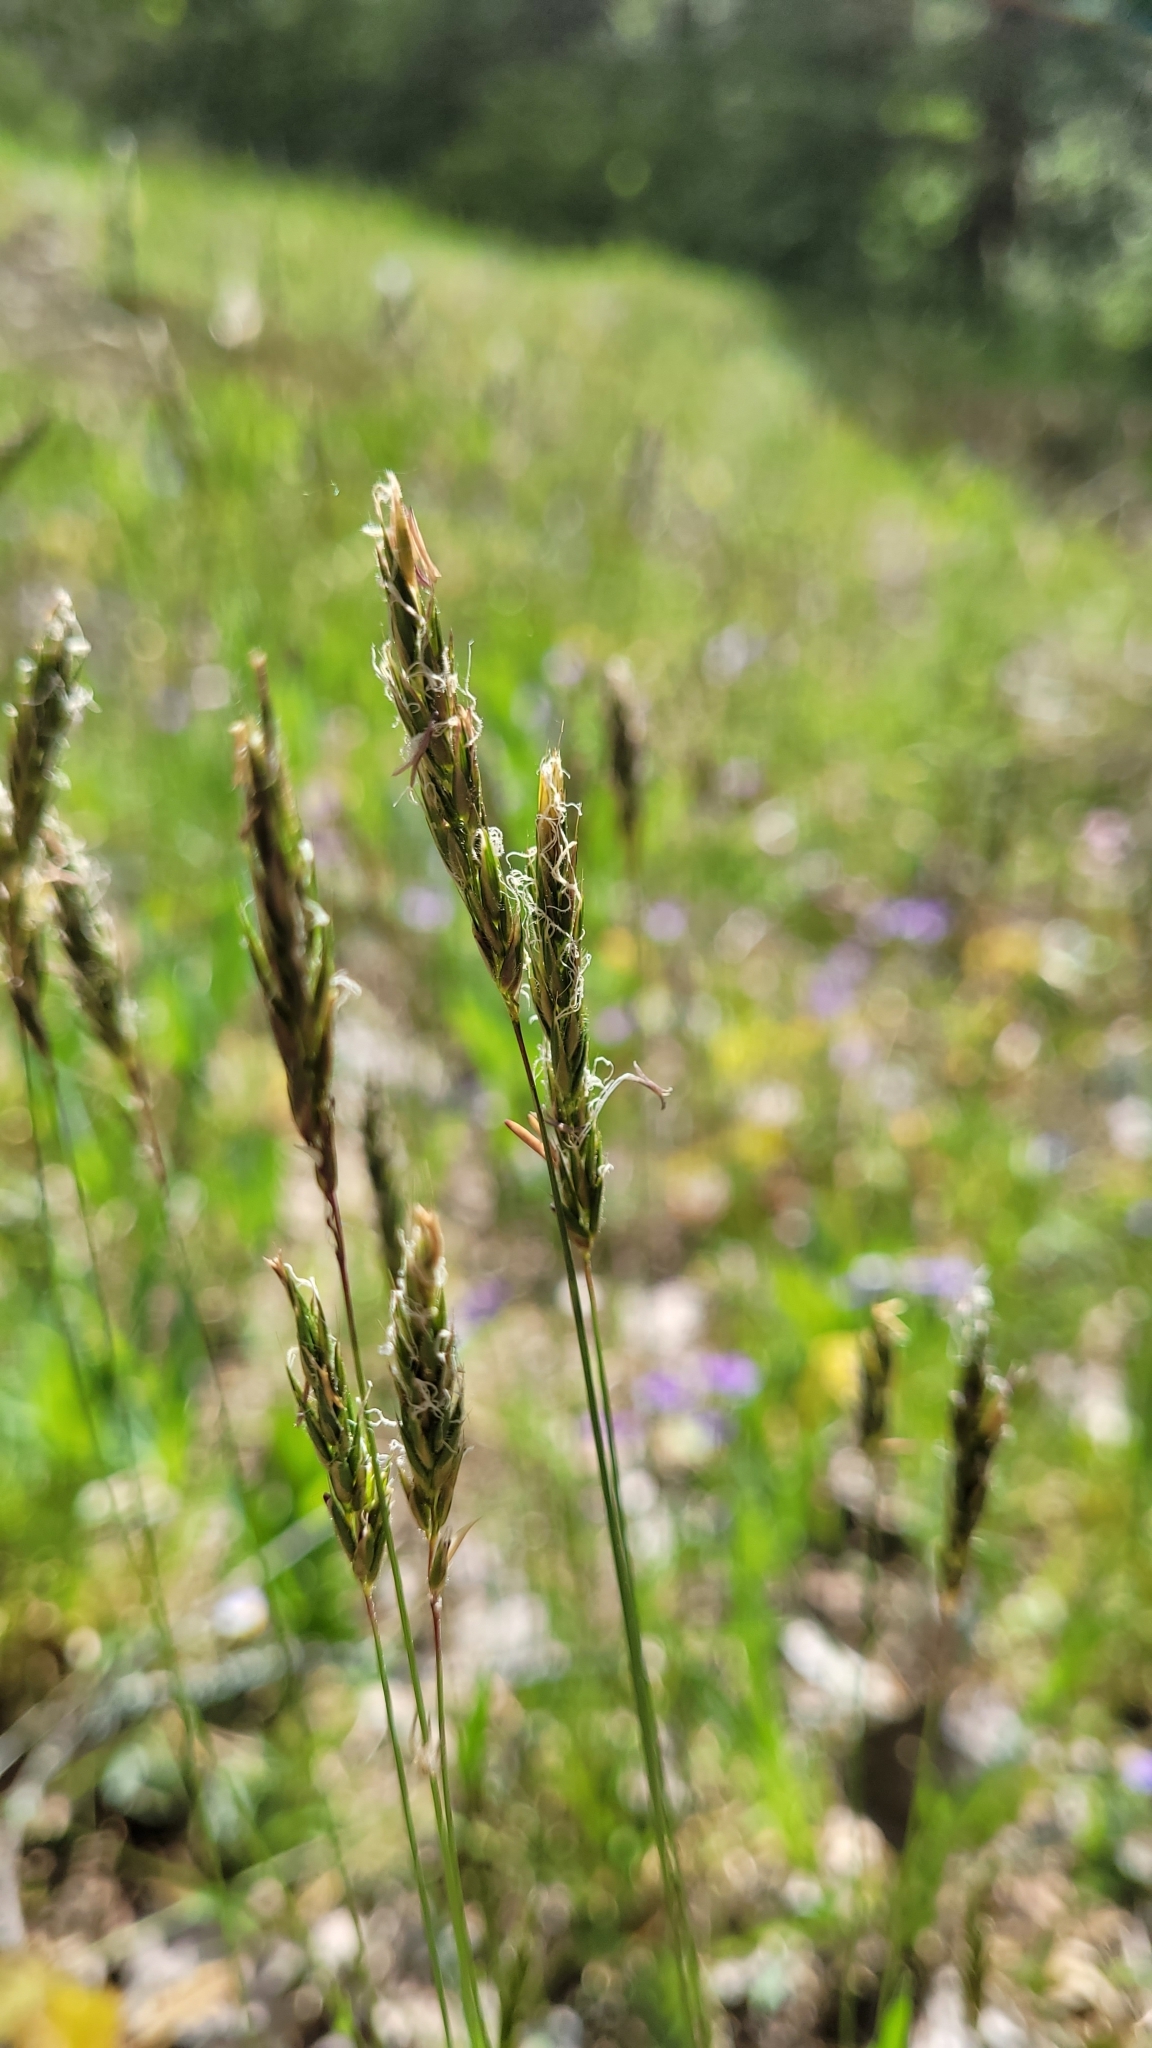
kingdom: Plantae
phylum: Tracheophyta
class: Liliopsida
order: Poales
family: Poaceae
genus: Anthoxanthum
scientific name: Anthoxanthum odoratum
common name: Sweet vernalgrass
